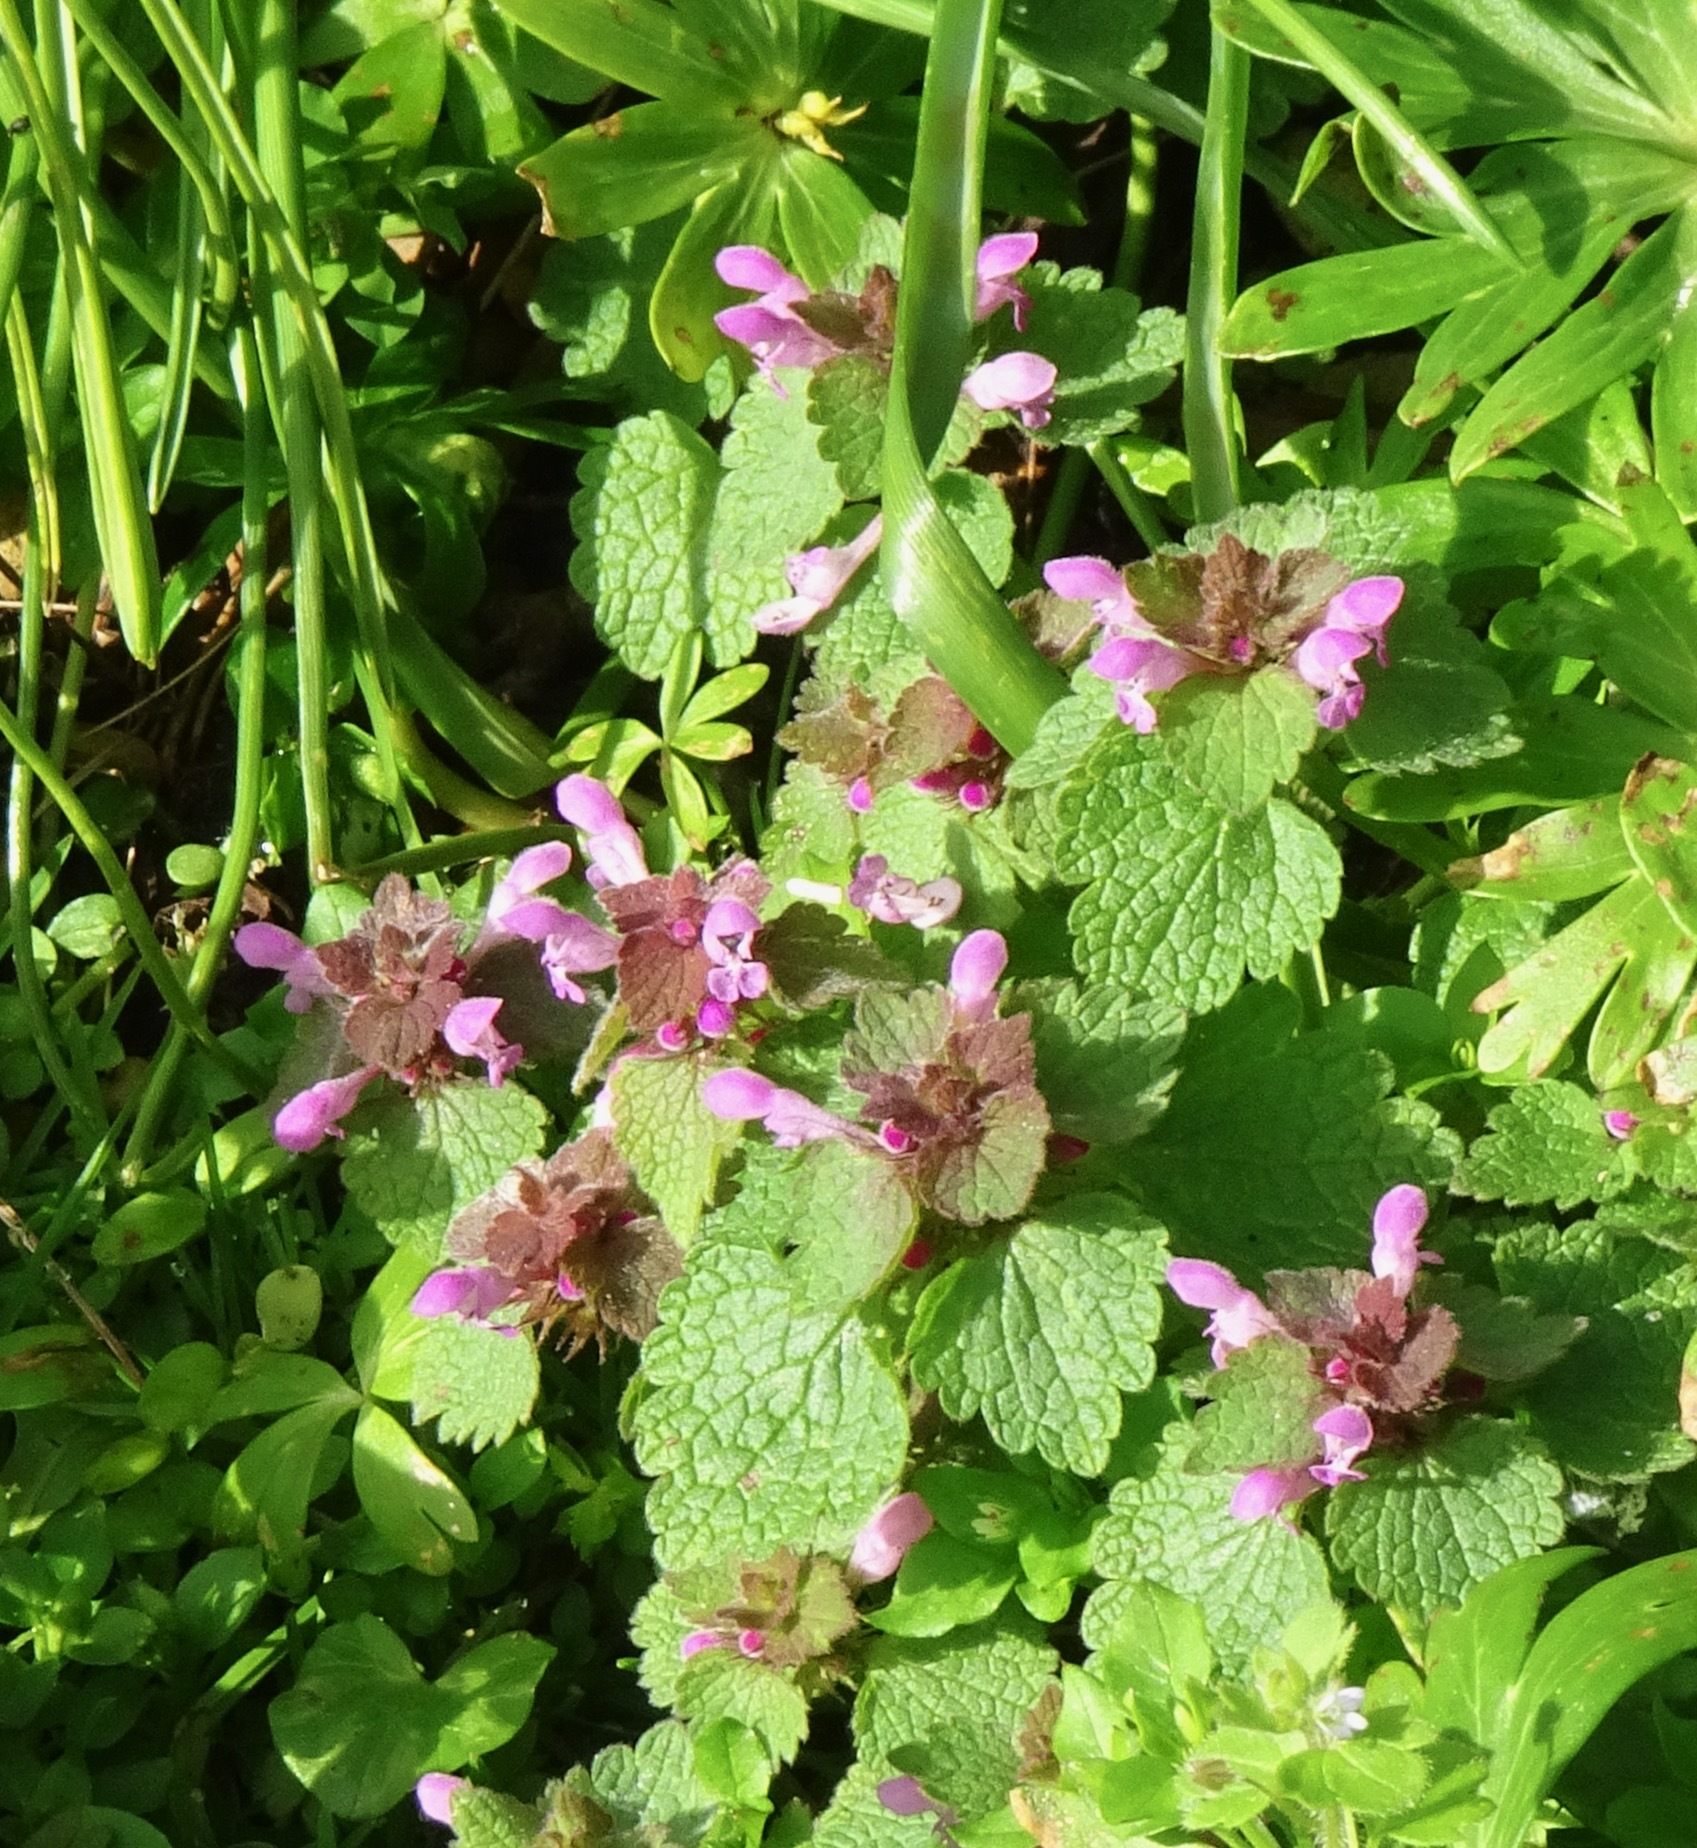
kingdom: Plantae
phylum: Tracheophyta
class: Magnoliopsida
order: Lamiales
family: Lamiaceae
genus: Lamium
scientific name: Lamium purpureum
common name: Red dead-nettle
